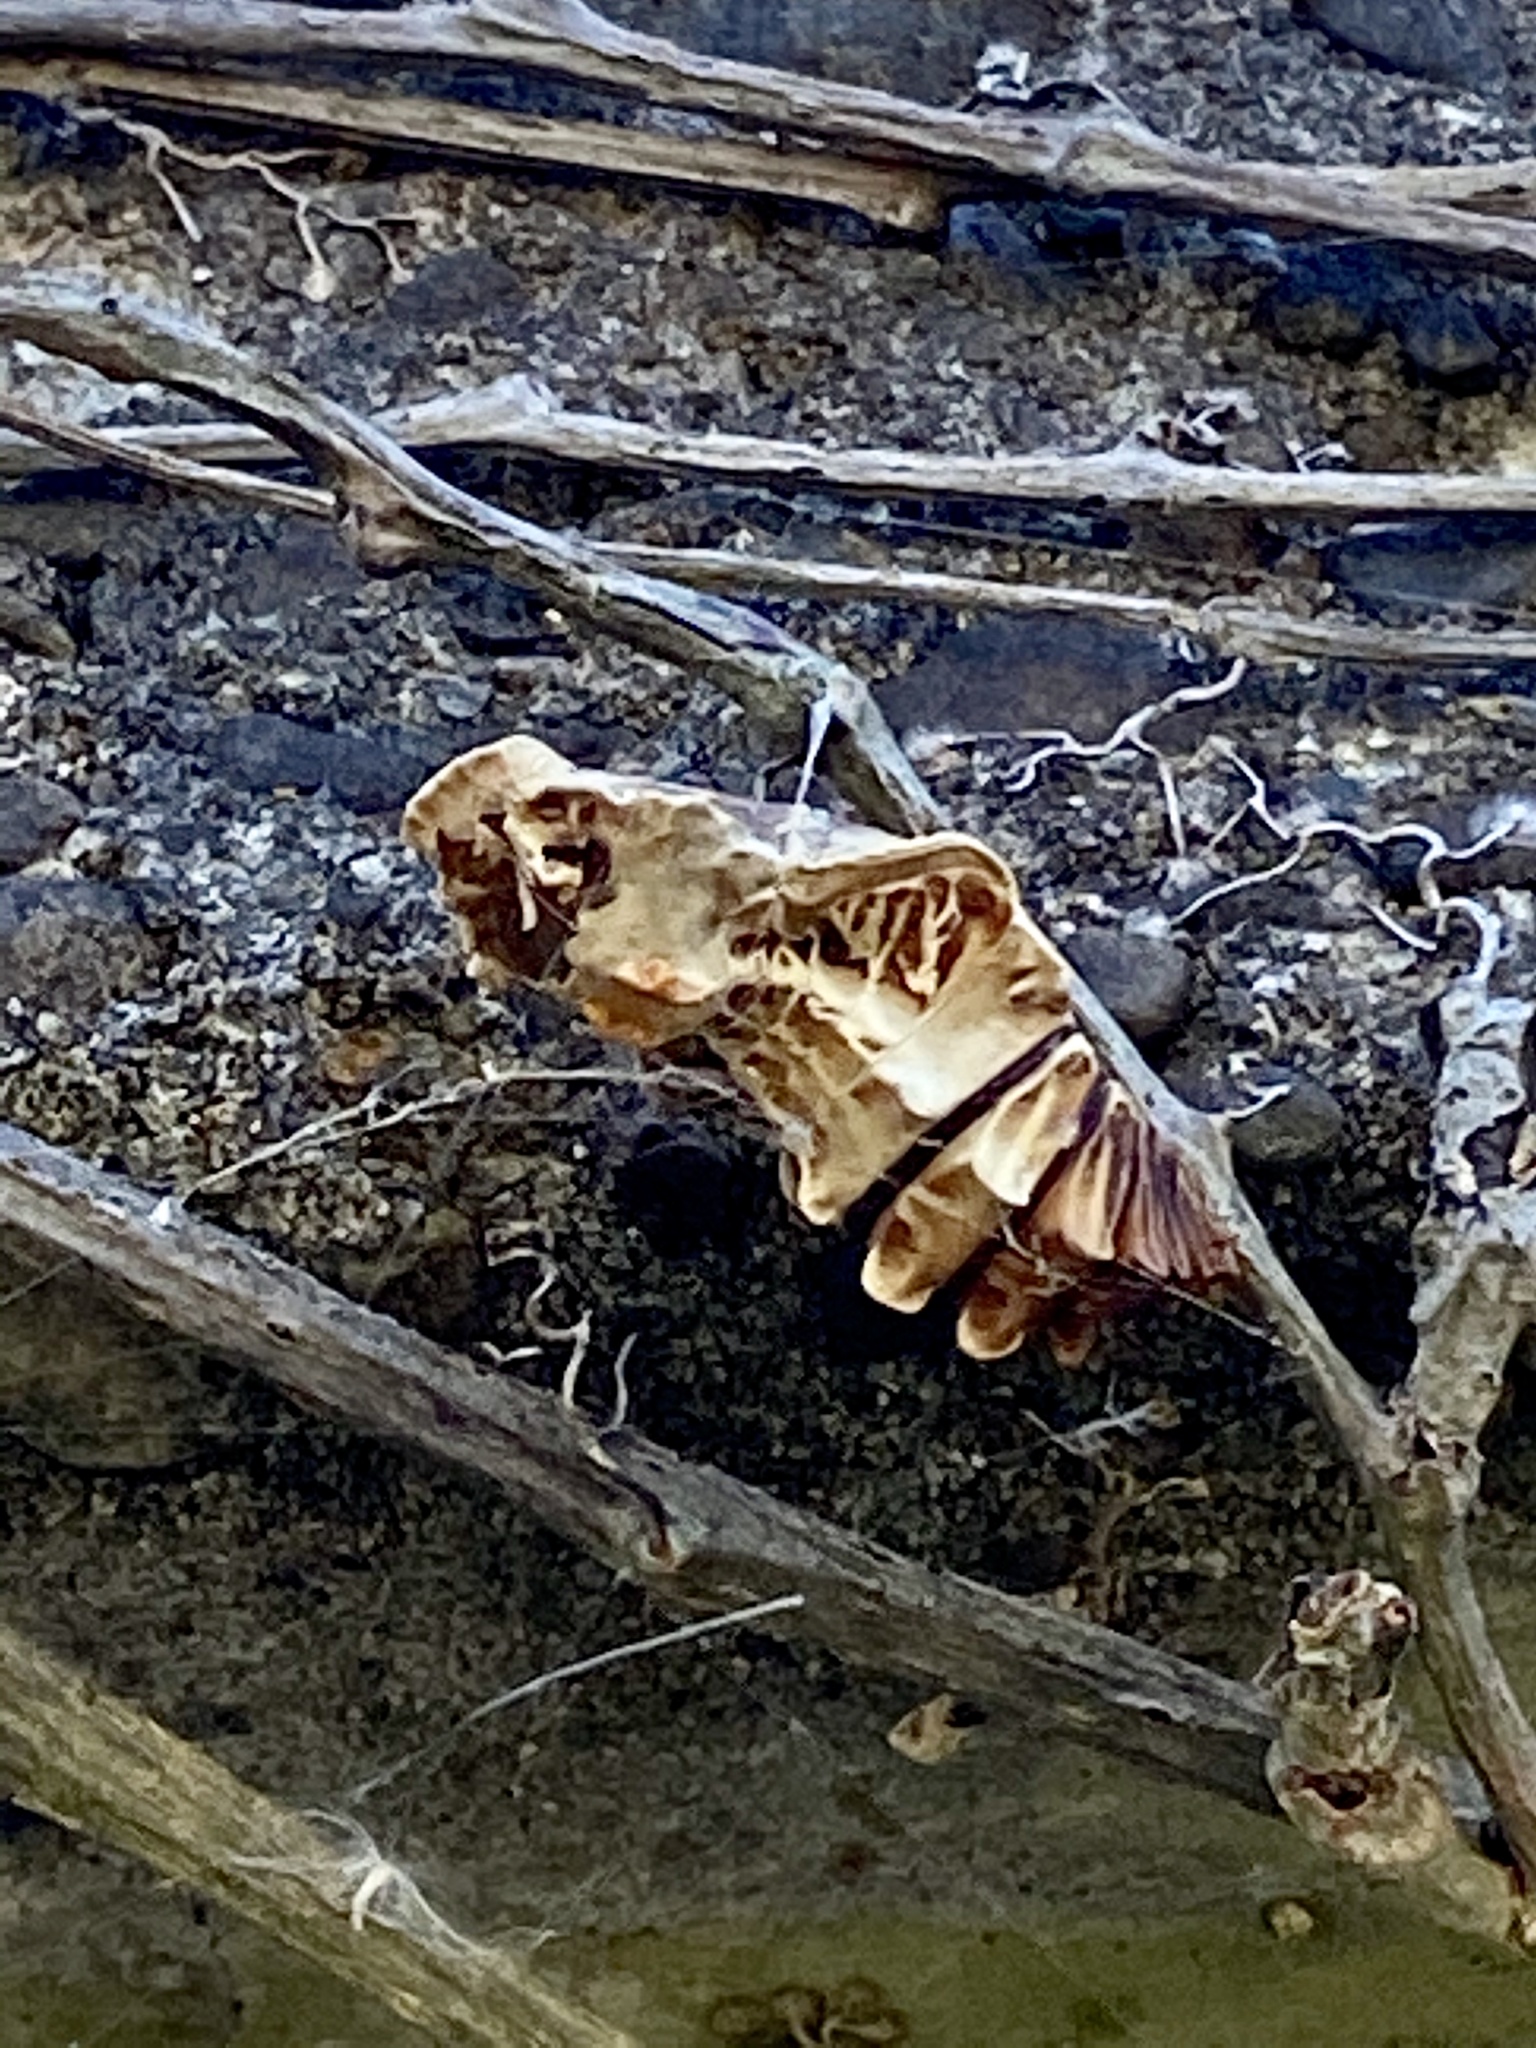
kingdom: Animalia
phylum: Arthropoda
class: Insecta
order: Lepidoptera
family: Papilionidae
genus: Byasa
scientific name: Byasa alcinous
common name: Chinese windmill
